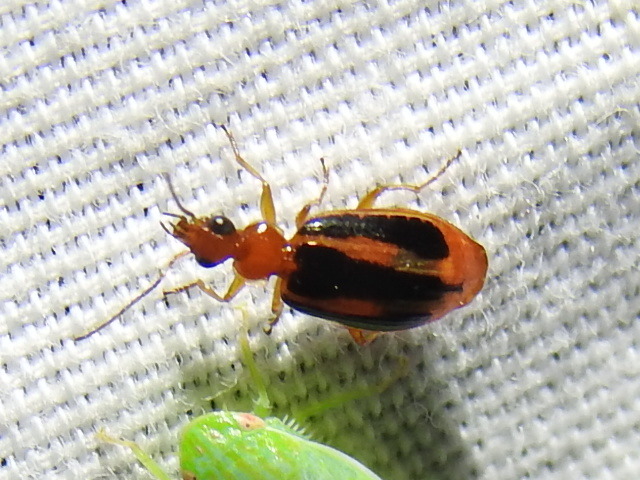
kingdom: Animalia
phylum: Arthropoda
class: Insecta
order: Coleoptera
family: Carabidae
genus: Lebia
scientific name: Lebia solea
